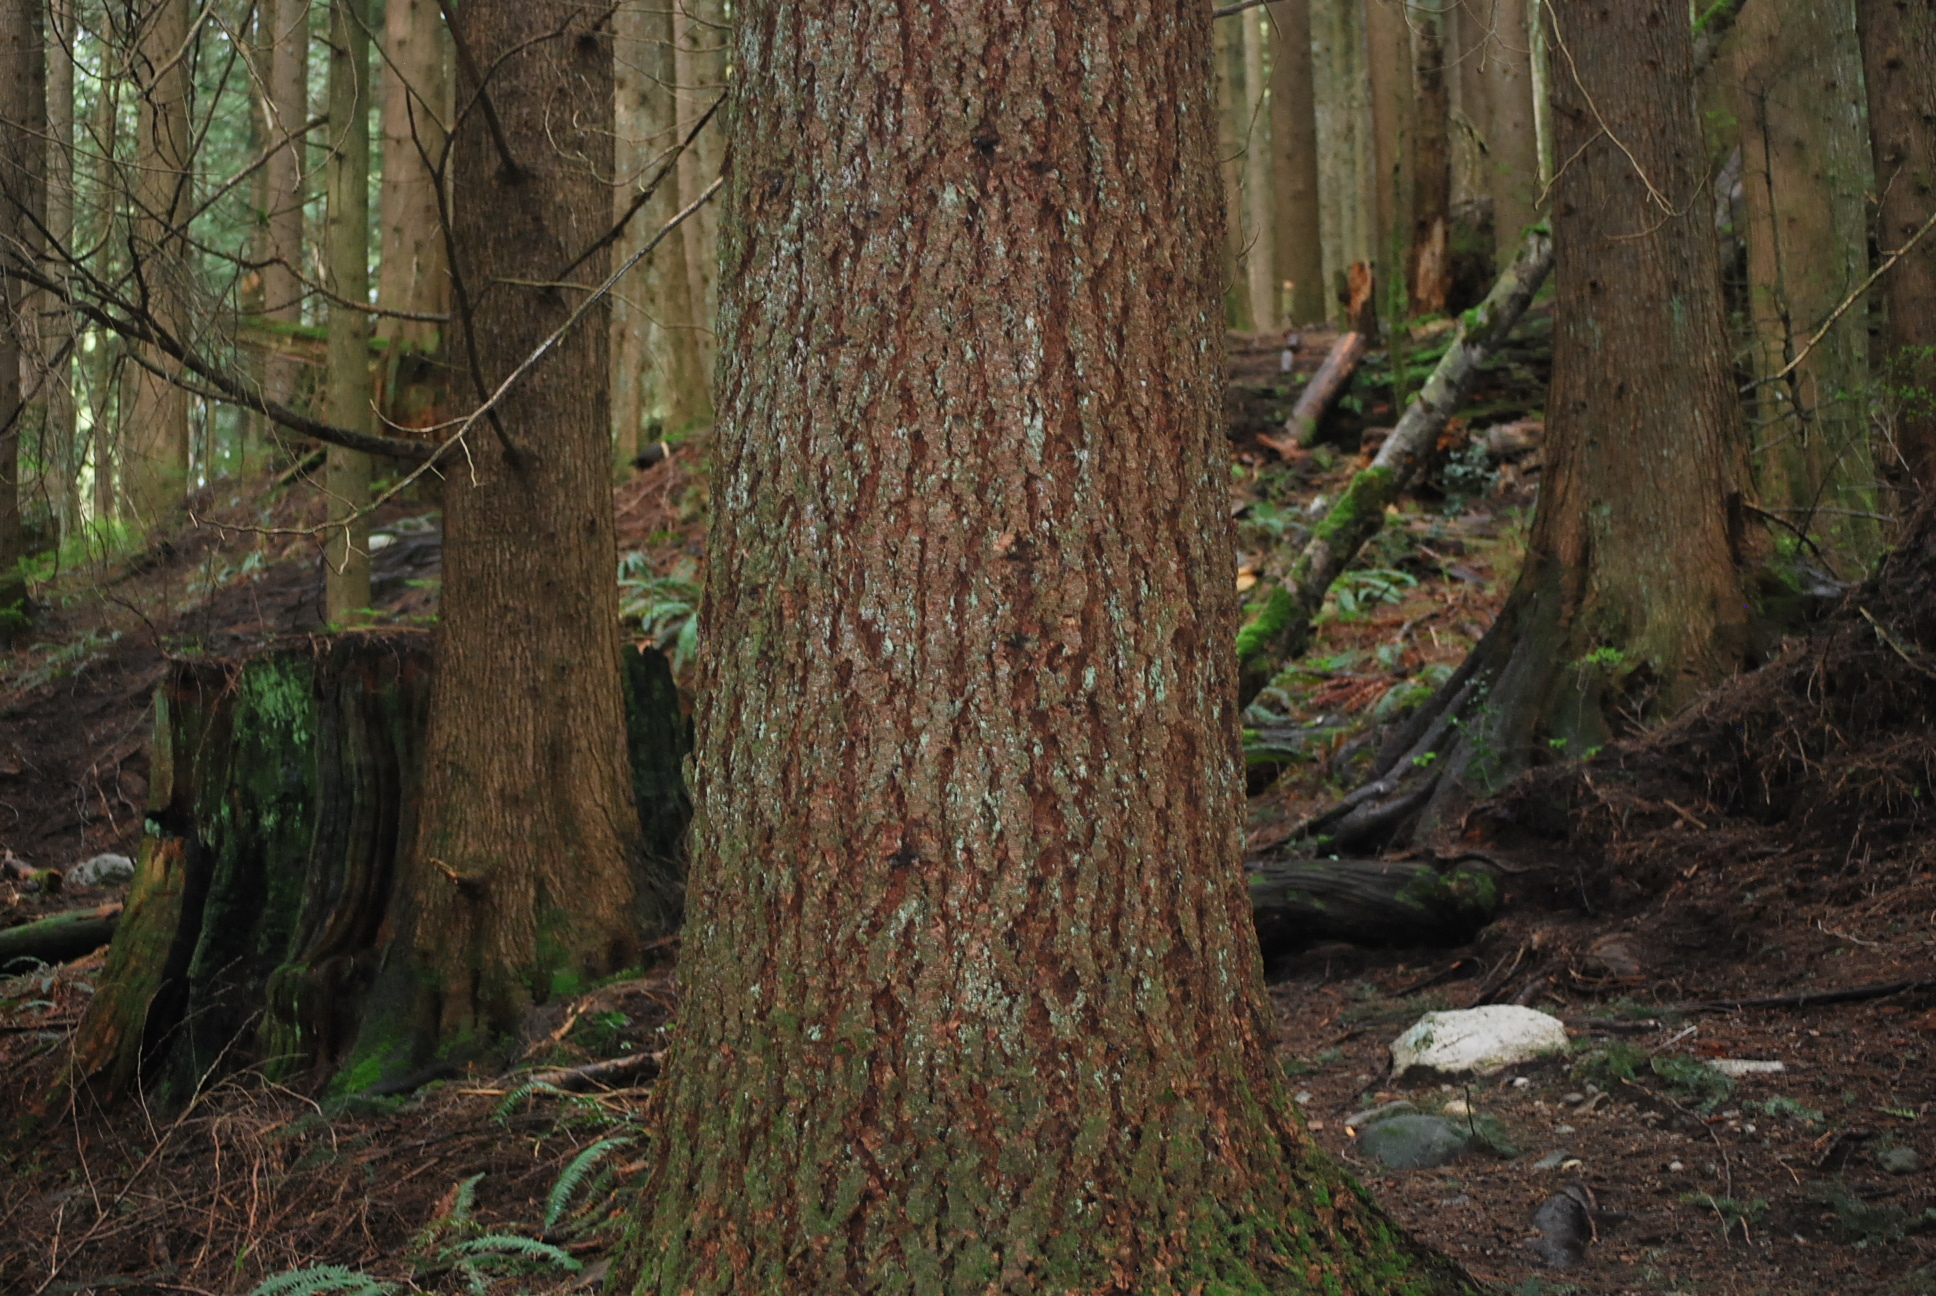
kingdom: Plantae
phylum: Tracheophyta
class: Pinopsida
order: Pinales
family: Pinaceae
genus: Pseudotsuga
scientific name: Pseudotsuga menziesii
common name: Douglas fir
